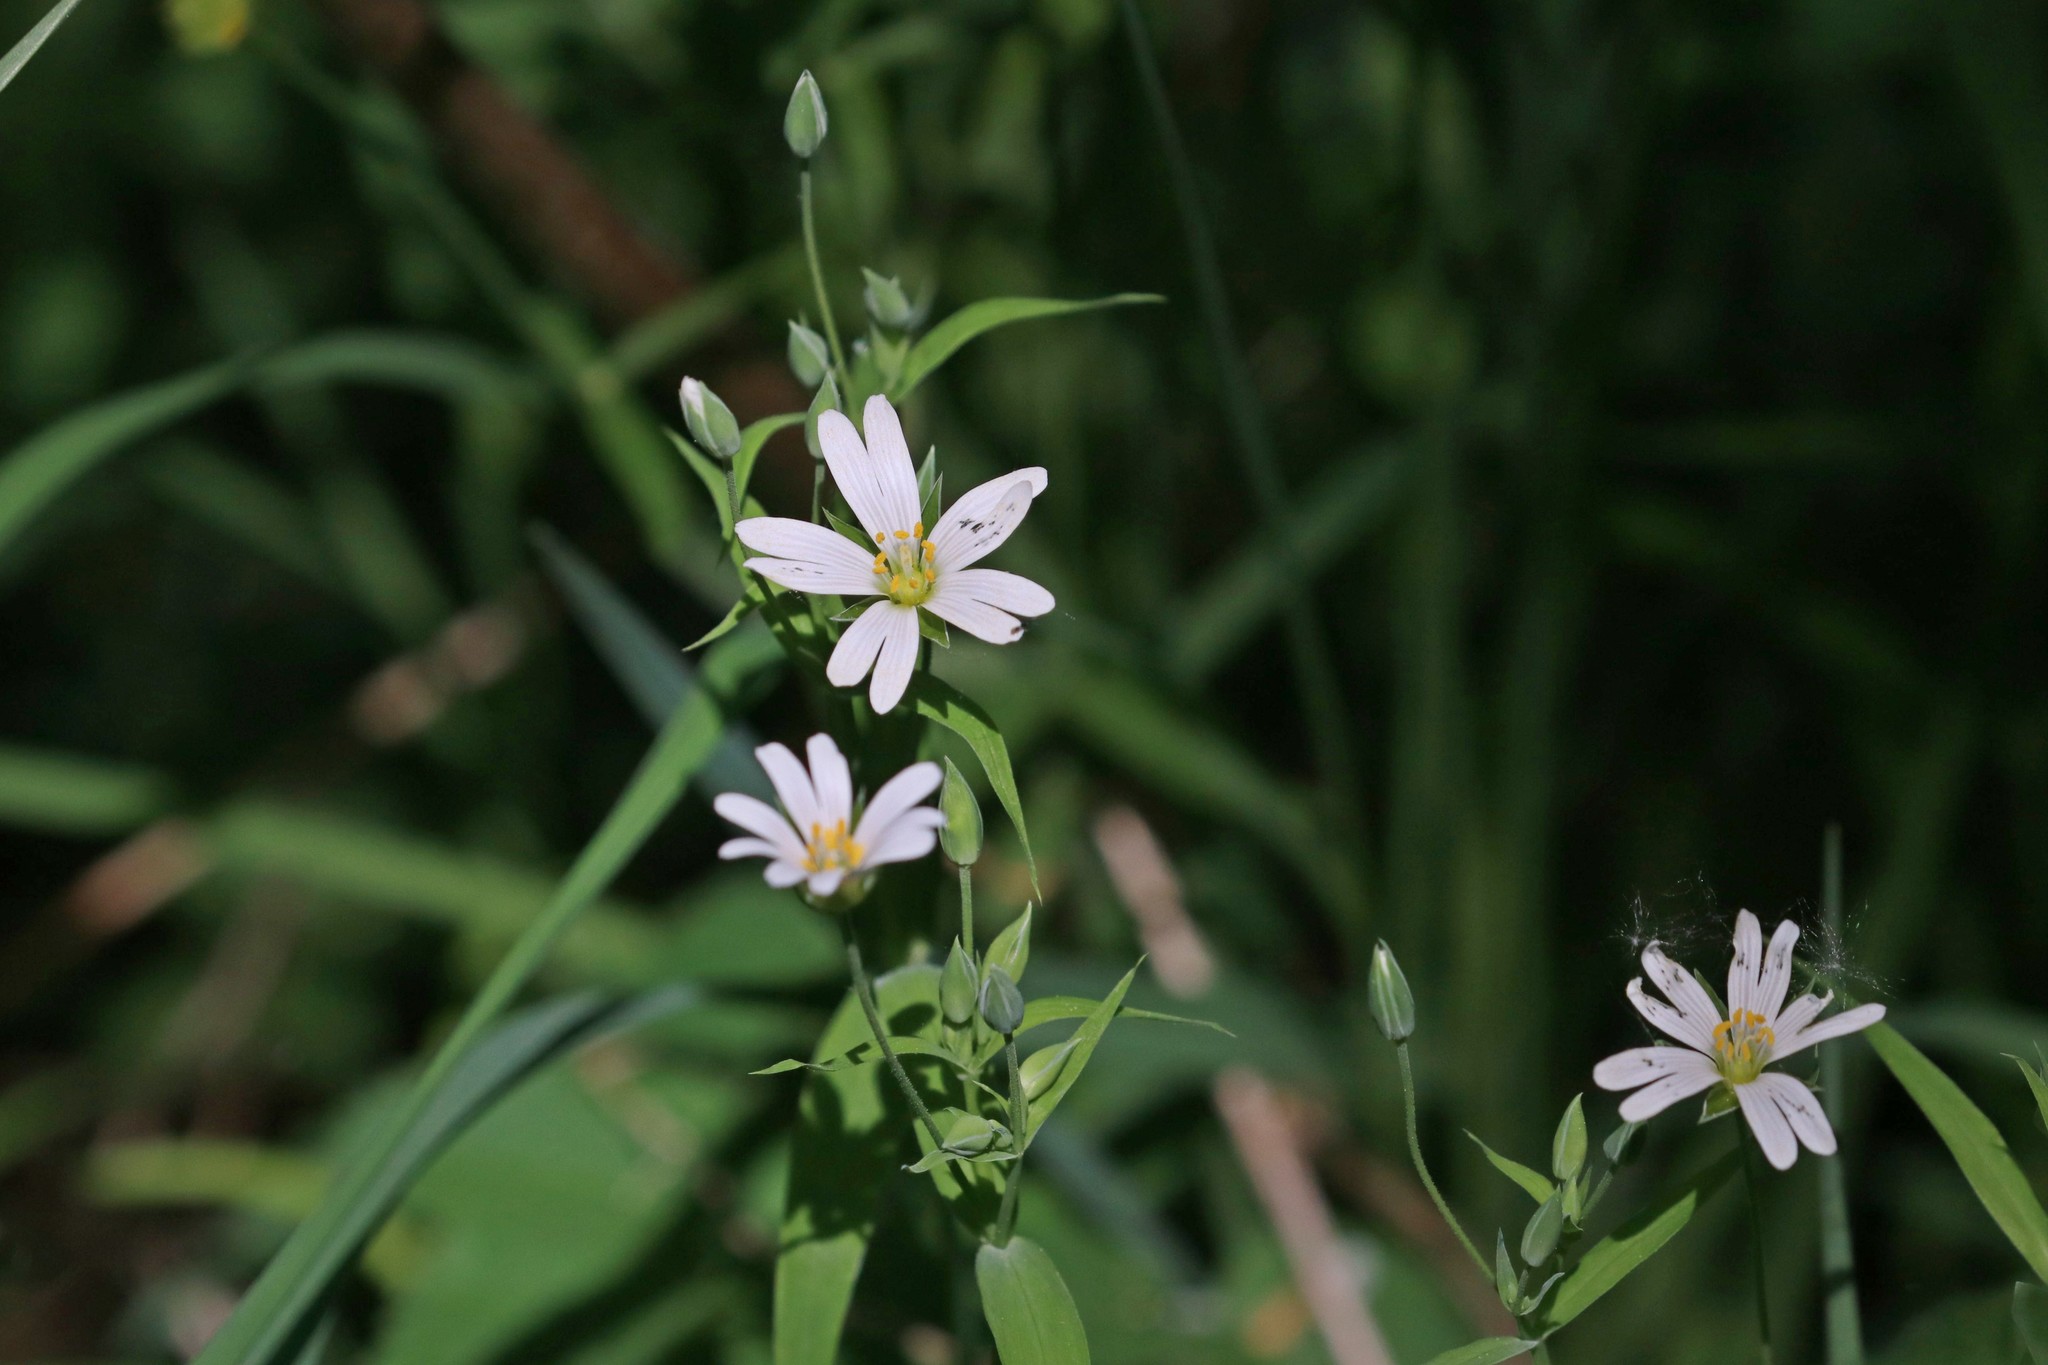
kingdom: Plantae
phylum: Tracheophyta
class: Magnoliopsida
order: Caryophyllales
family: Caryophyllaceae
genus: Rabelera
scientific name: Rabelera holostea
